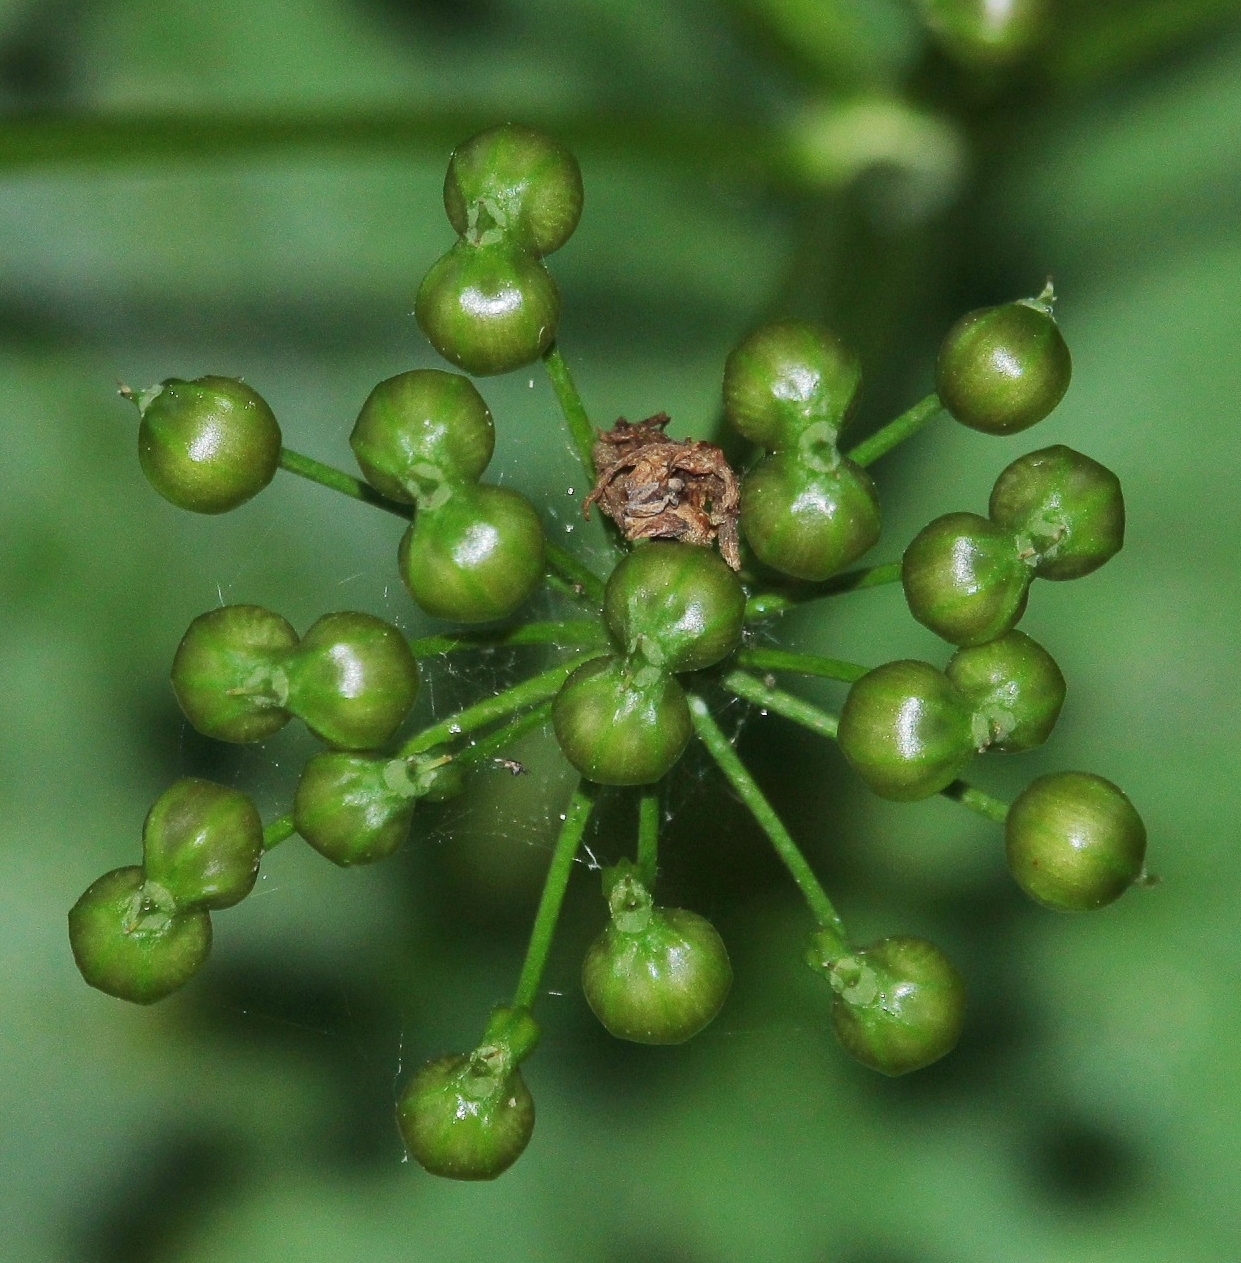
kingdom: Plantae
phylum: Tracheophyta
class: Magnoliopsida
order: Apiales
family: Apiaceae
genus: Smyrnium
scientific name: Smyrnium perfoliatum
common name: Perfoliate alexanders
